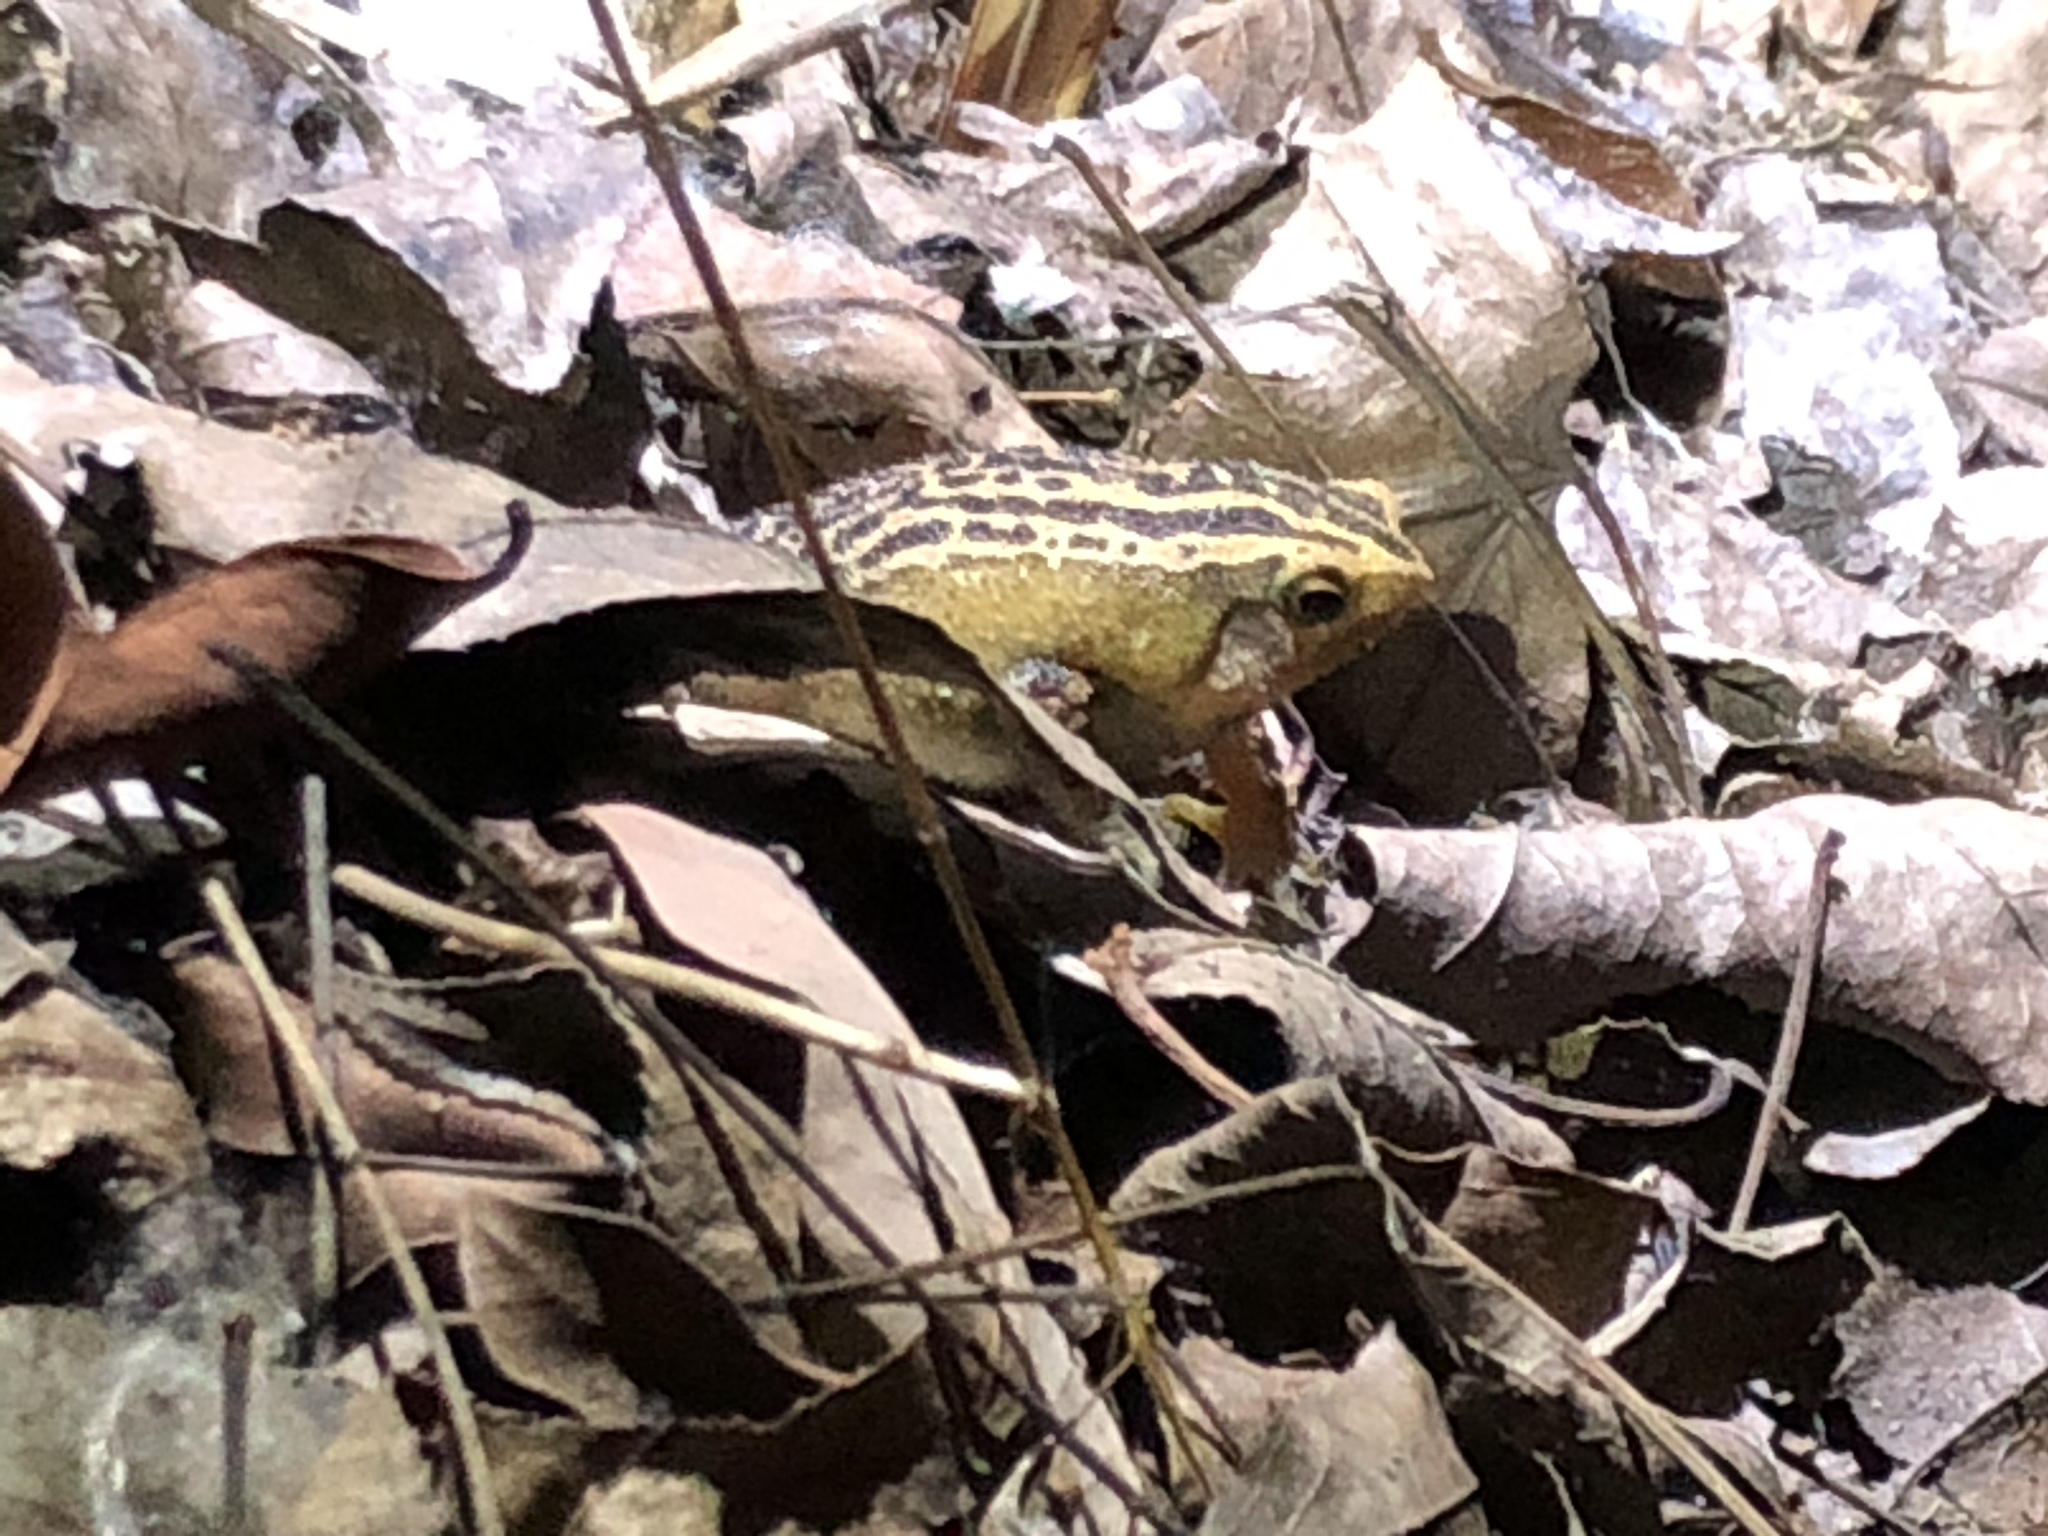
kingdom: Animalia
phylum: Chordata
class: Amphibia
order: Anura
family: Microhylidae
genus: Kalophrynus
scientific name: Kalophrynus interlineatus
